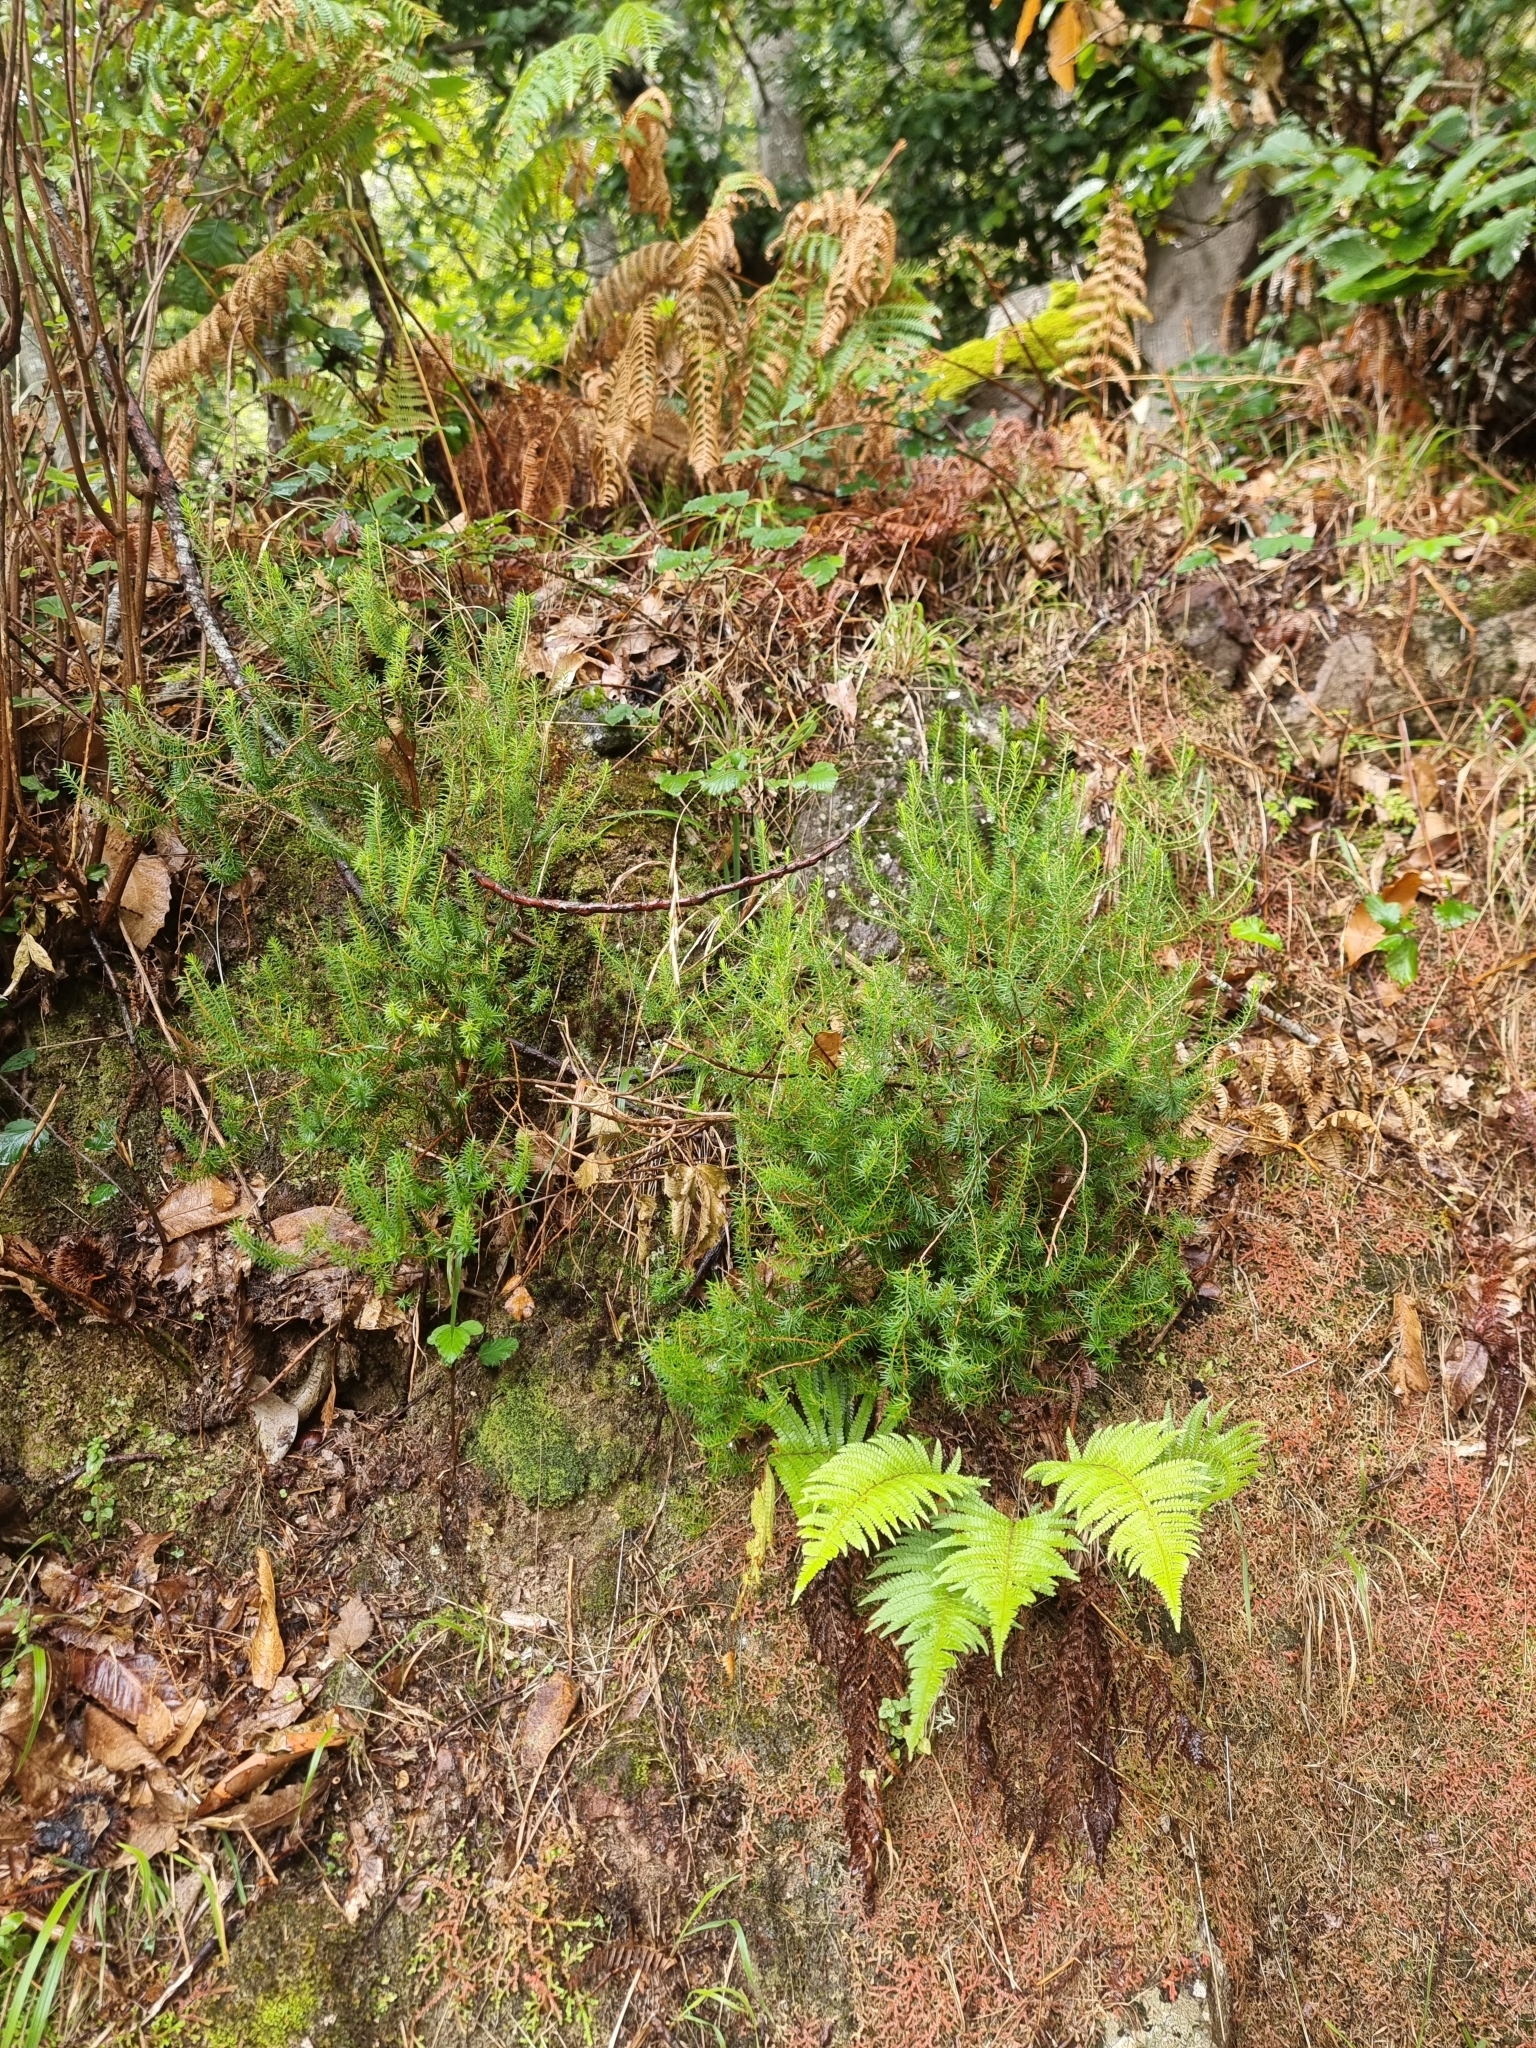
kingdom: Plantae
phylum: Tracheophyta
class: Magnoliopsida
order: Ericales
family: Ericaceae
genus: Erica
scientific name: Erica platycodon
